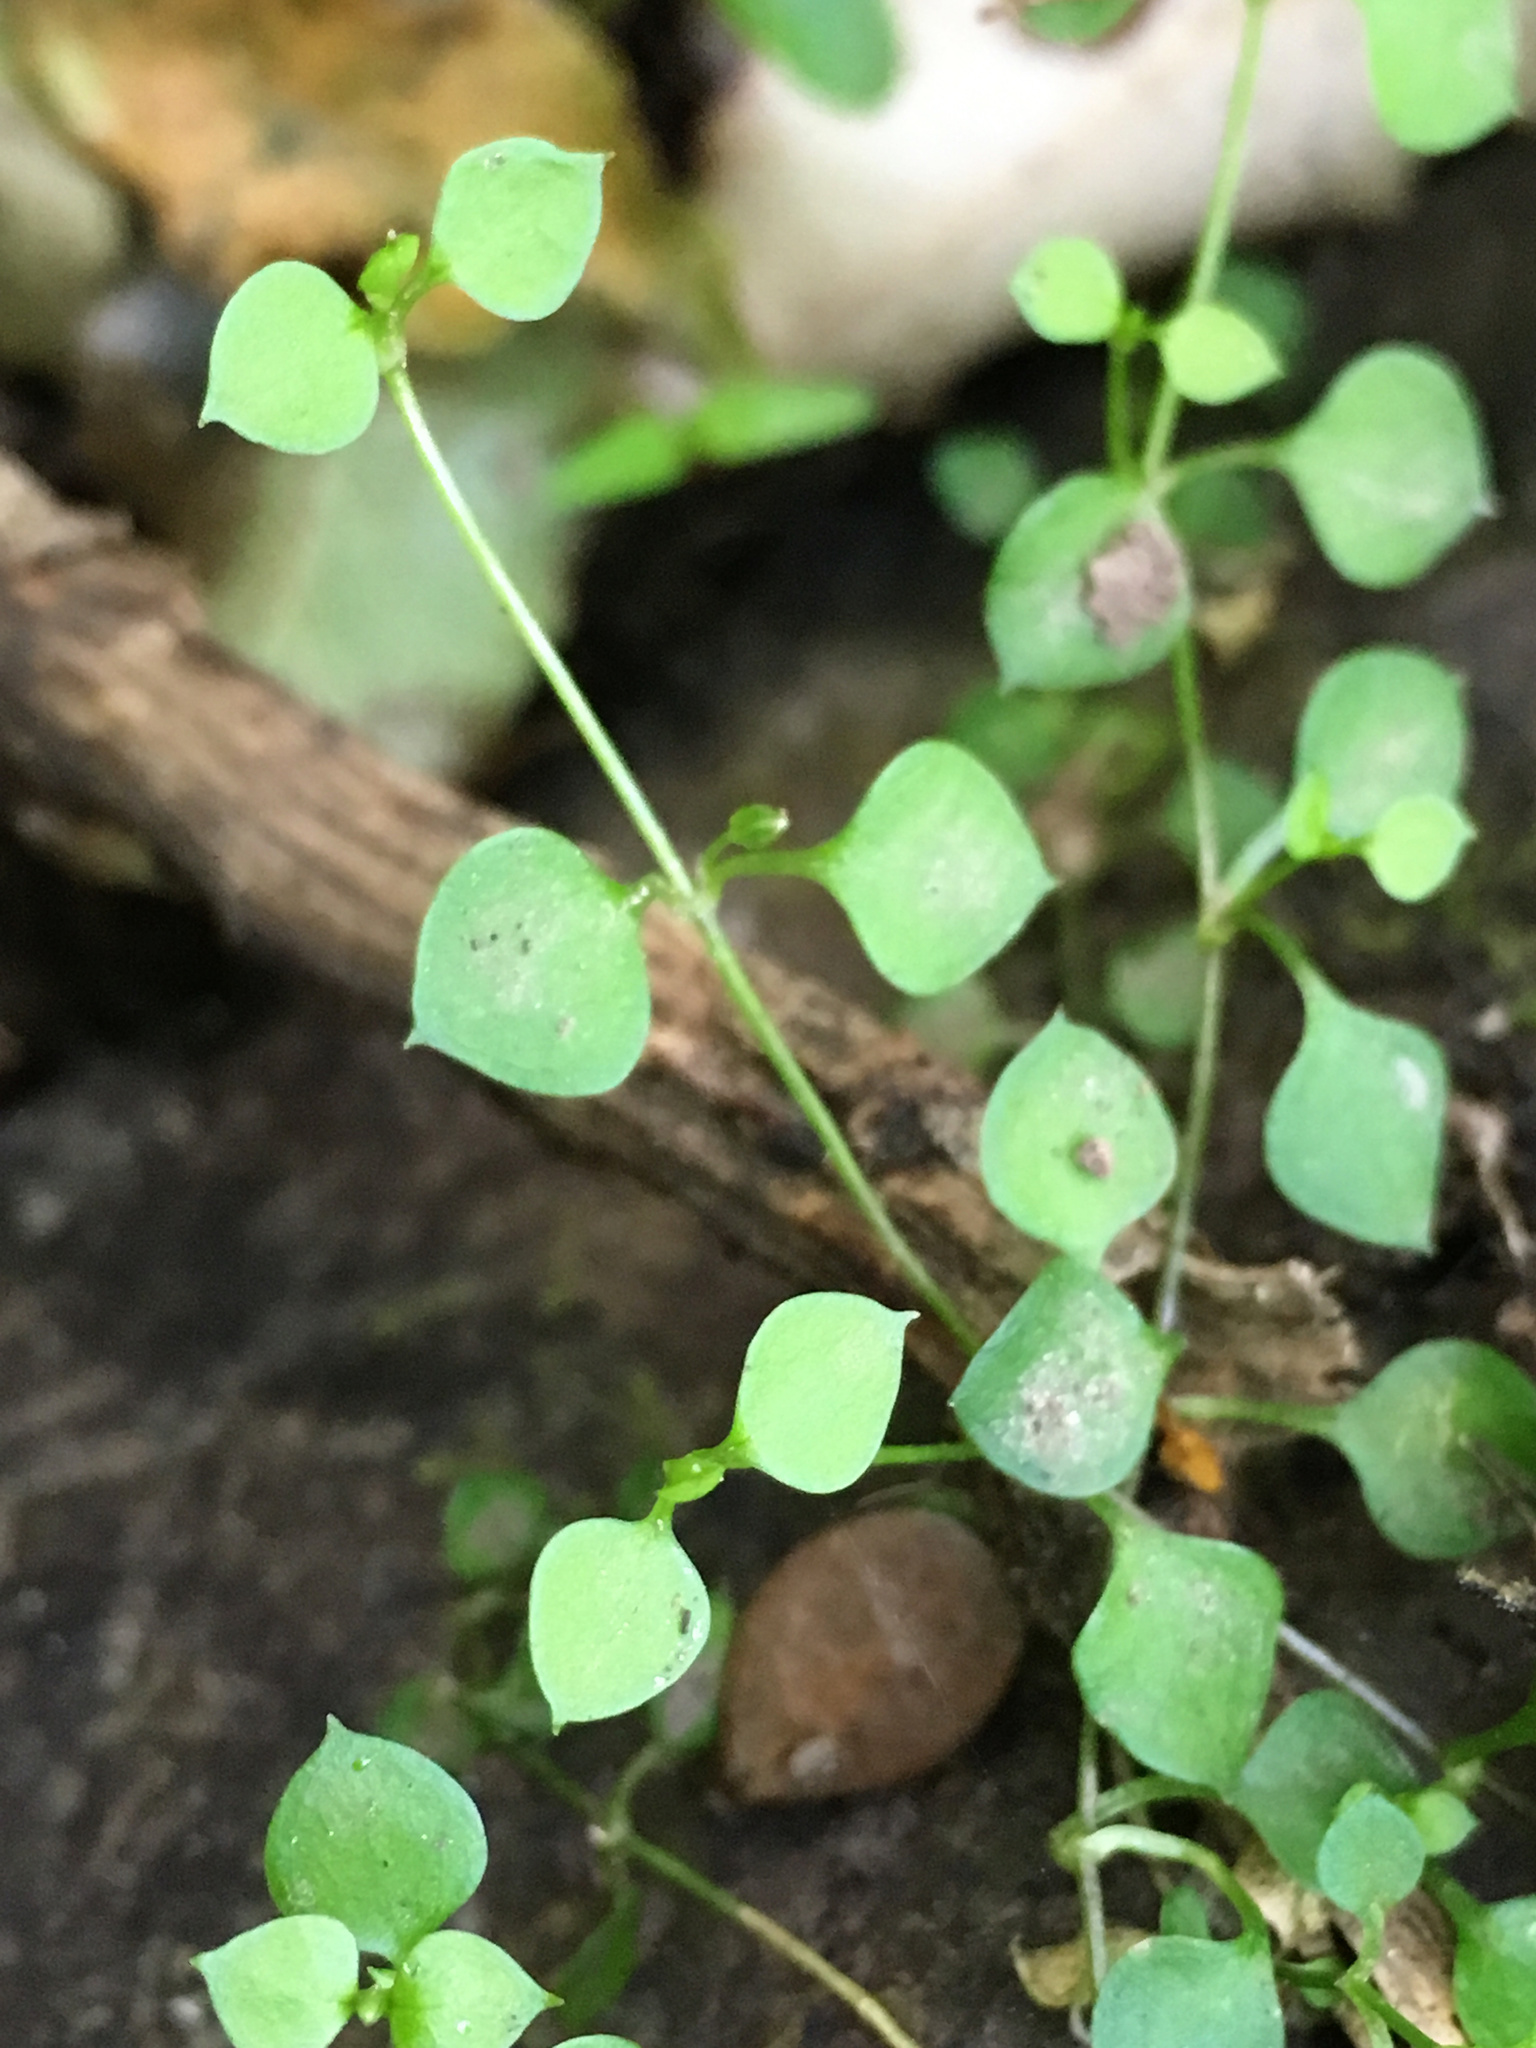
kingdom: Plantae
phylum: Tracheophyta
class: Magnoliopsida
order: Caryophyllales
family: Caryophyllaceae
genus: Stellaria
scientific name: Stellaria parviflora
